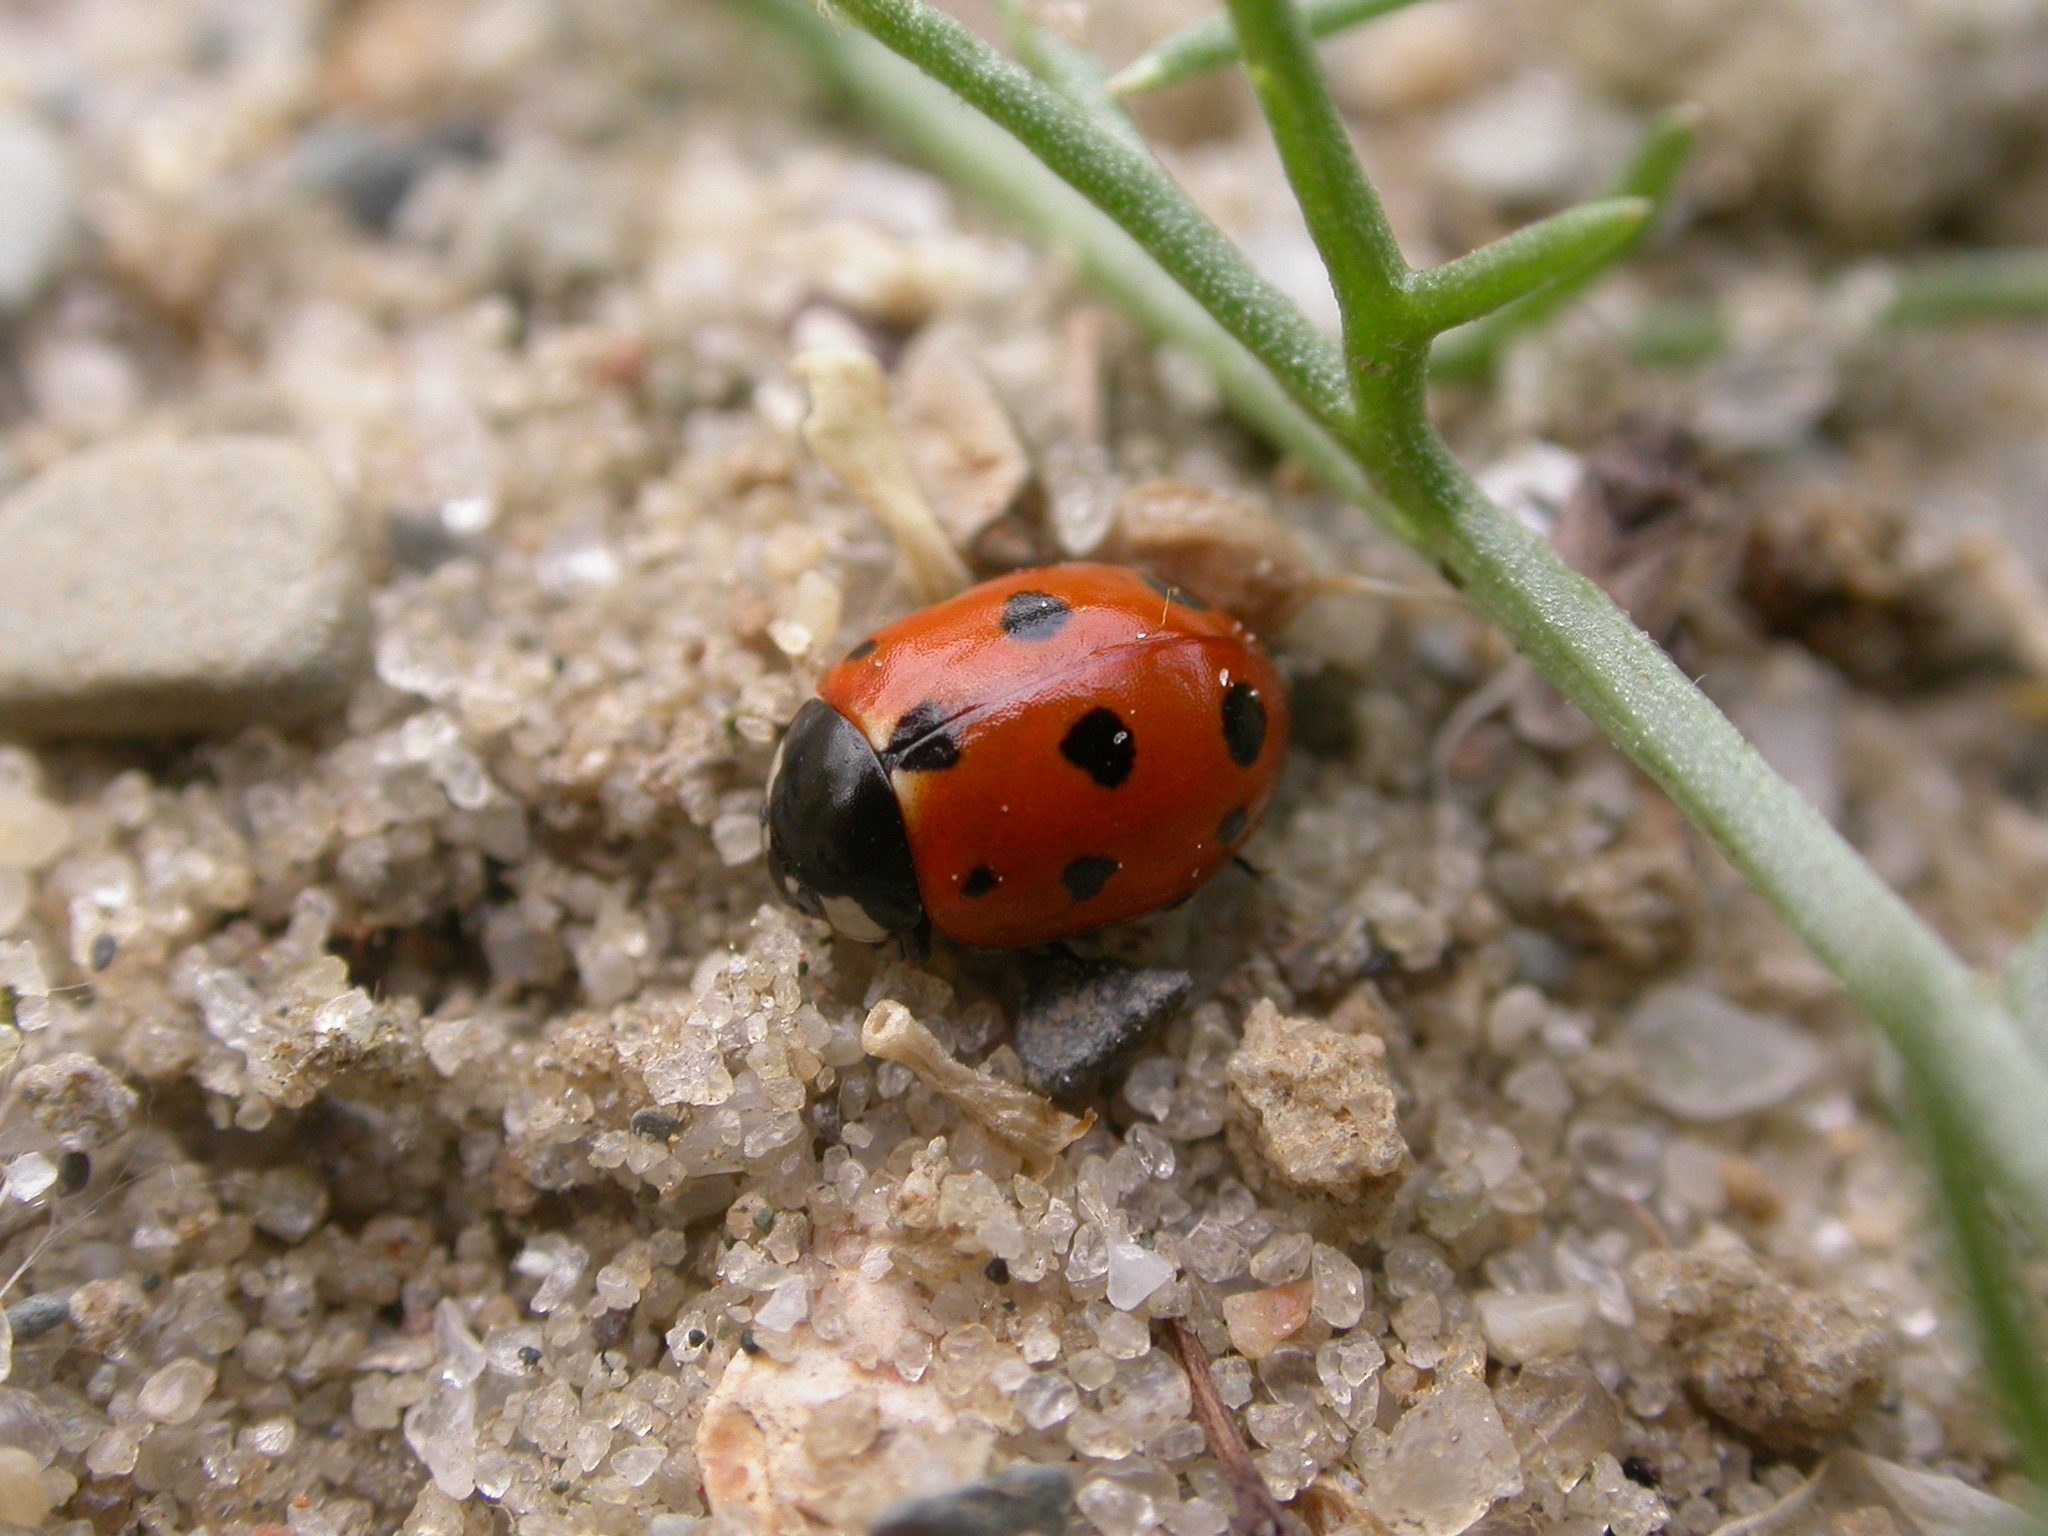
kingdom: Animalia
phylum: Arthropoda
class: Insecta
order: Coleoptera
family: Coccinellidae
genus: Coccinella
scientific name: Coccinella undecimpunctata
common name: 11-spot ladybird
